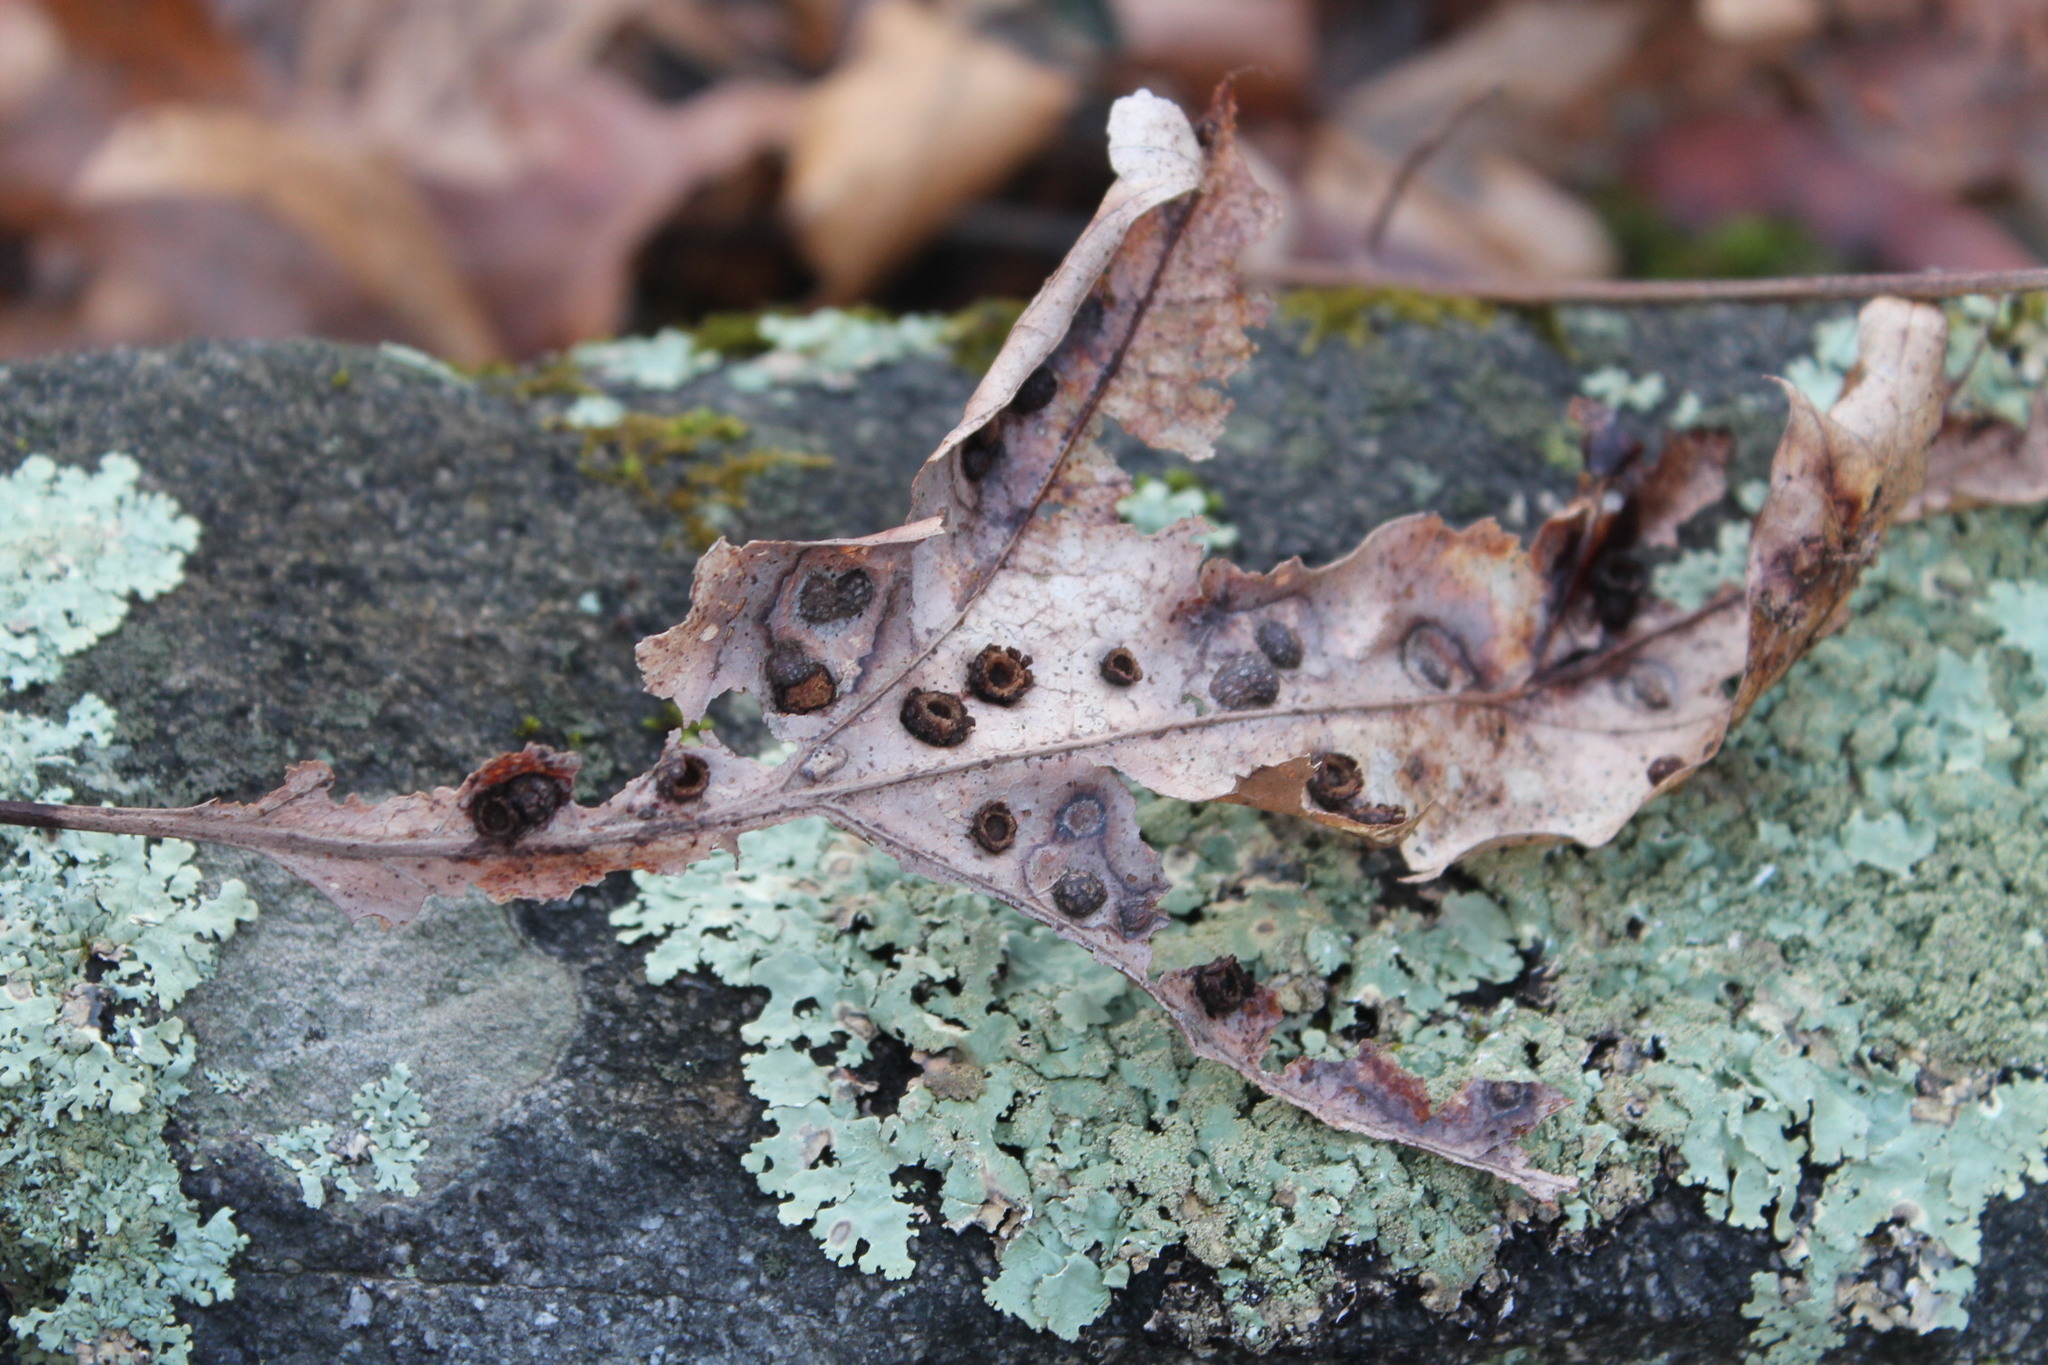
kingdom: Animalia
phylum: Arthropoda
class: Insecta
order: Diptera
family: Cecidomyiidae
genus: Polystepha
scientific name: Polystepha pilulae
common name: Oak leaf gall midge
